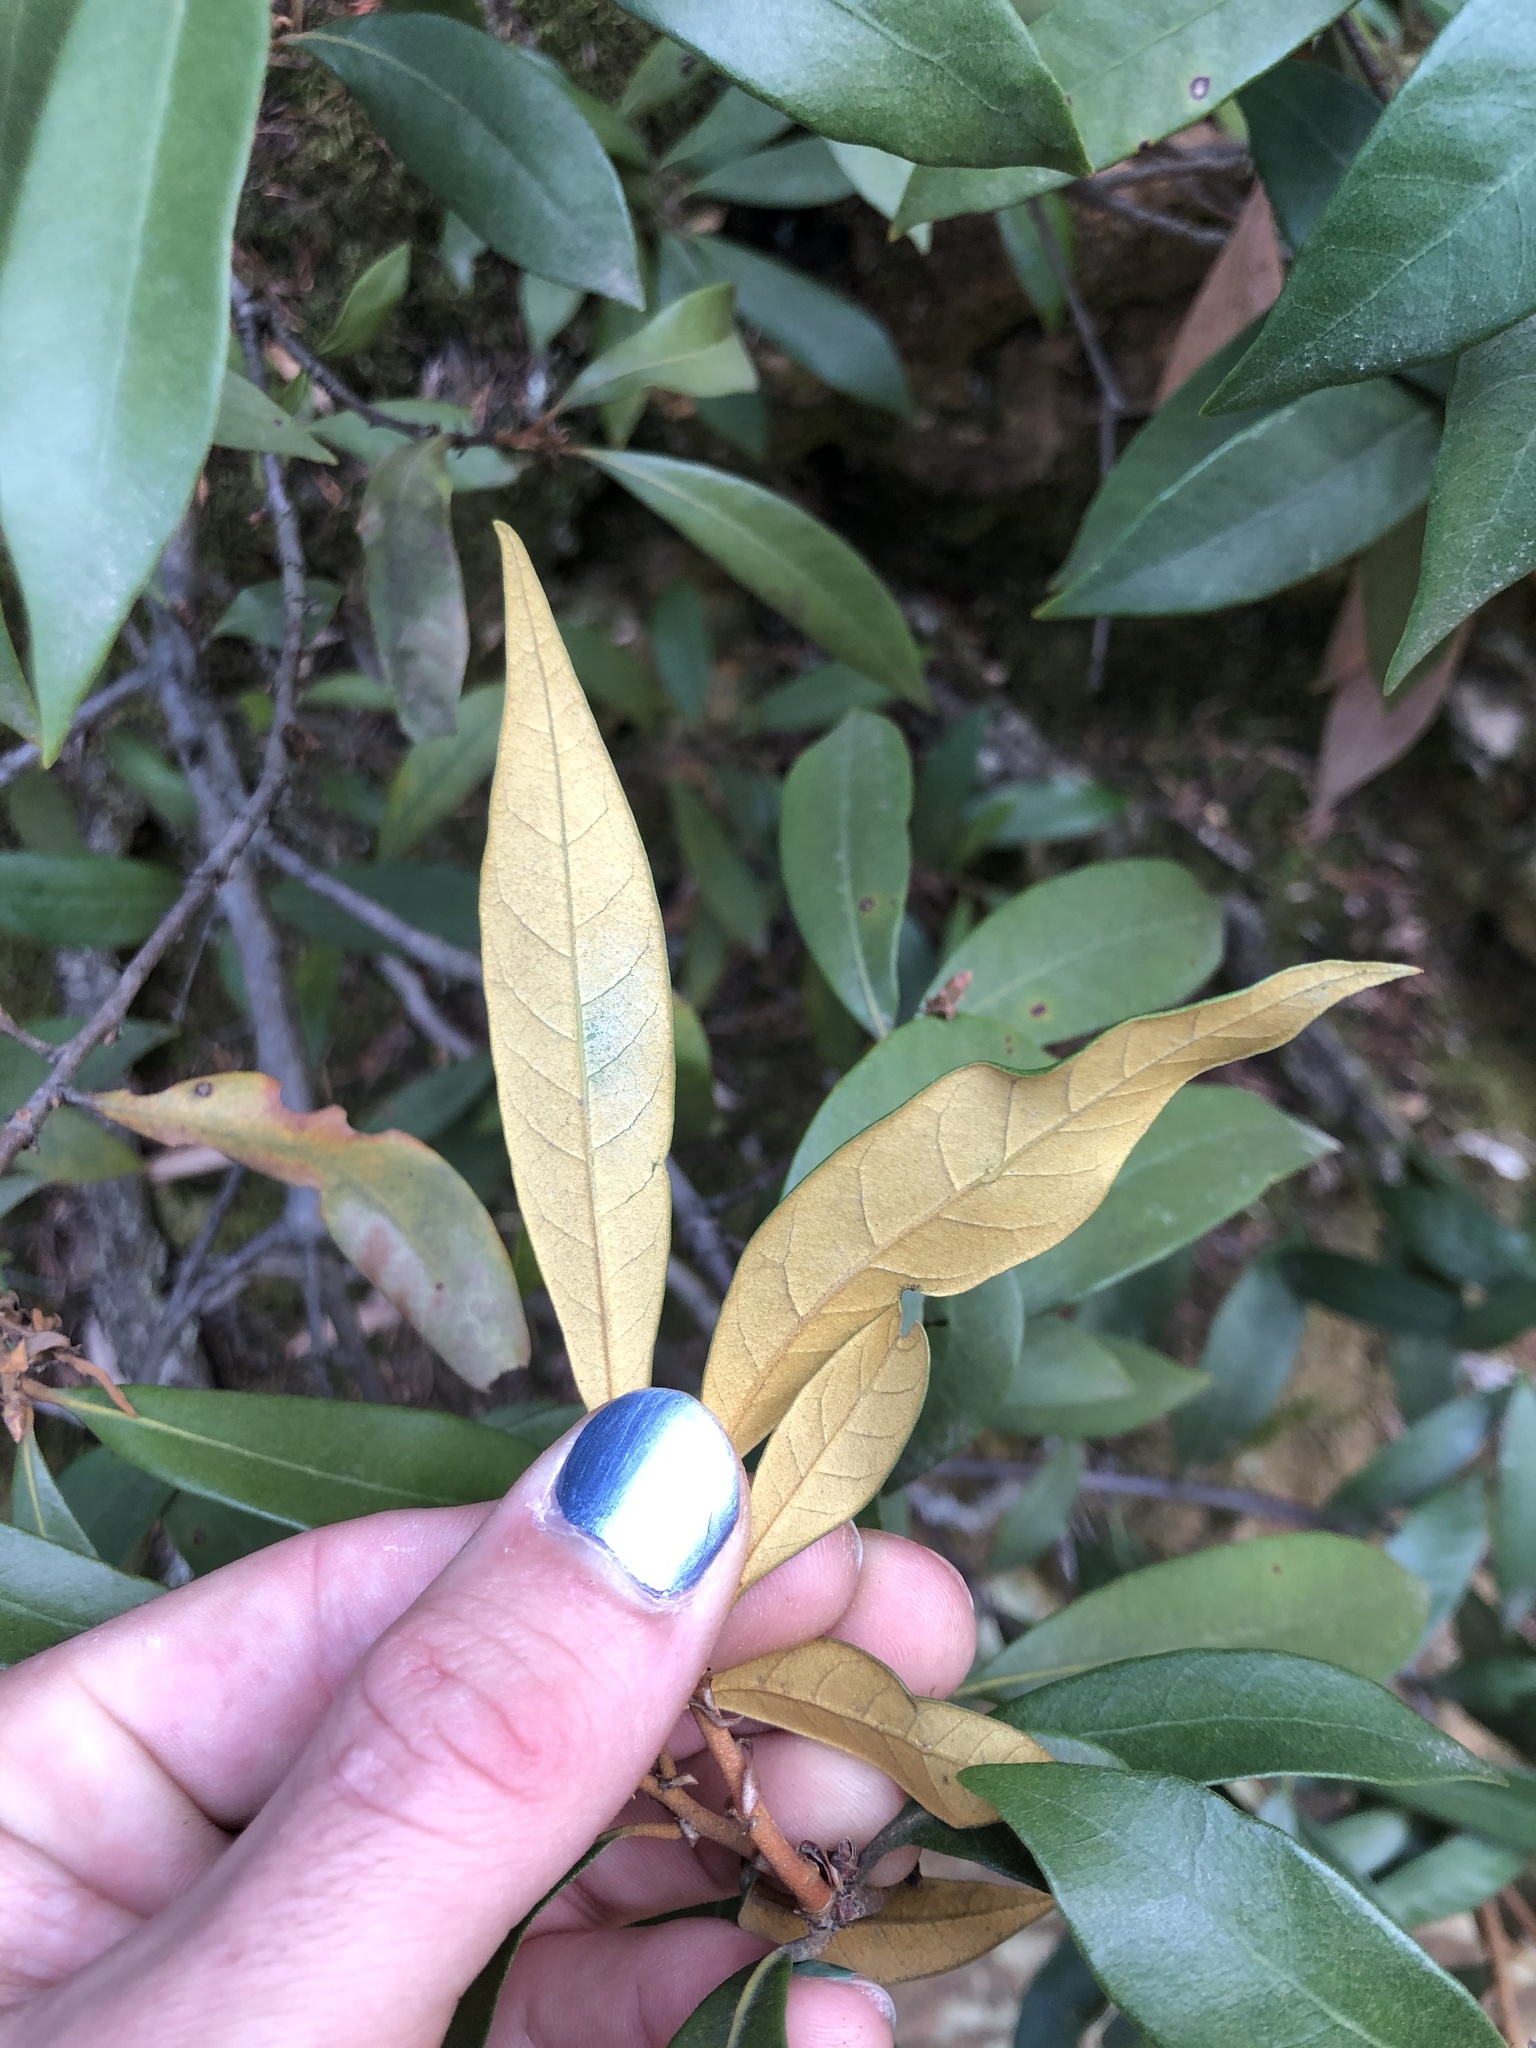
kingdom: Plantae
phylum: Tracheophyta
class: Magnoliopsida
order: Fagales
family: Fagaceae
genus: Chrysolepis
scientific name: Chrysolepis chrysophylla
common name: Giant chinquapin
